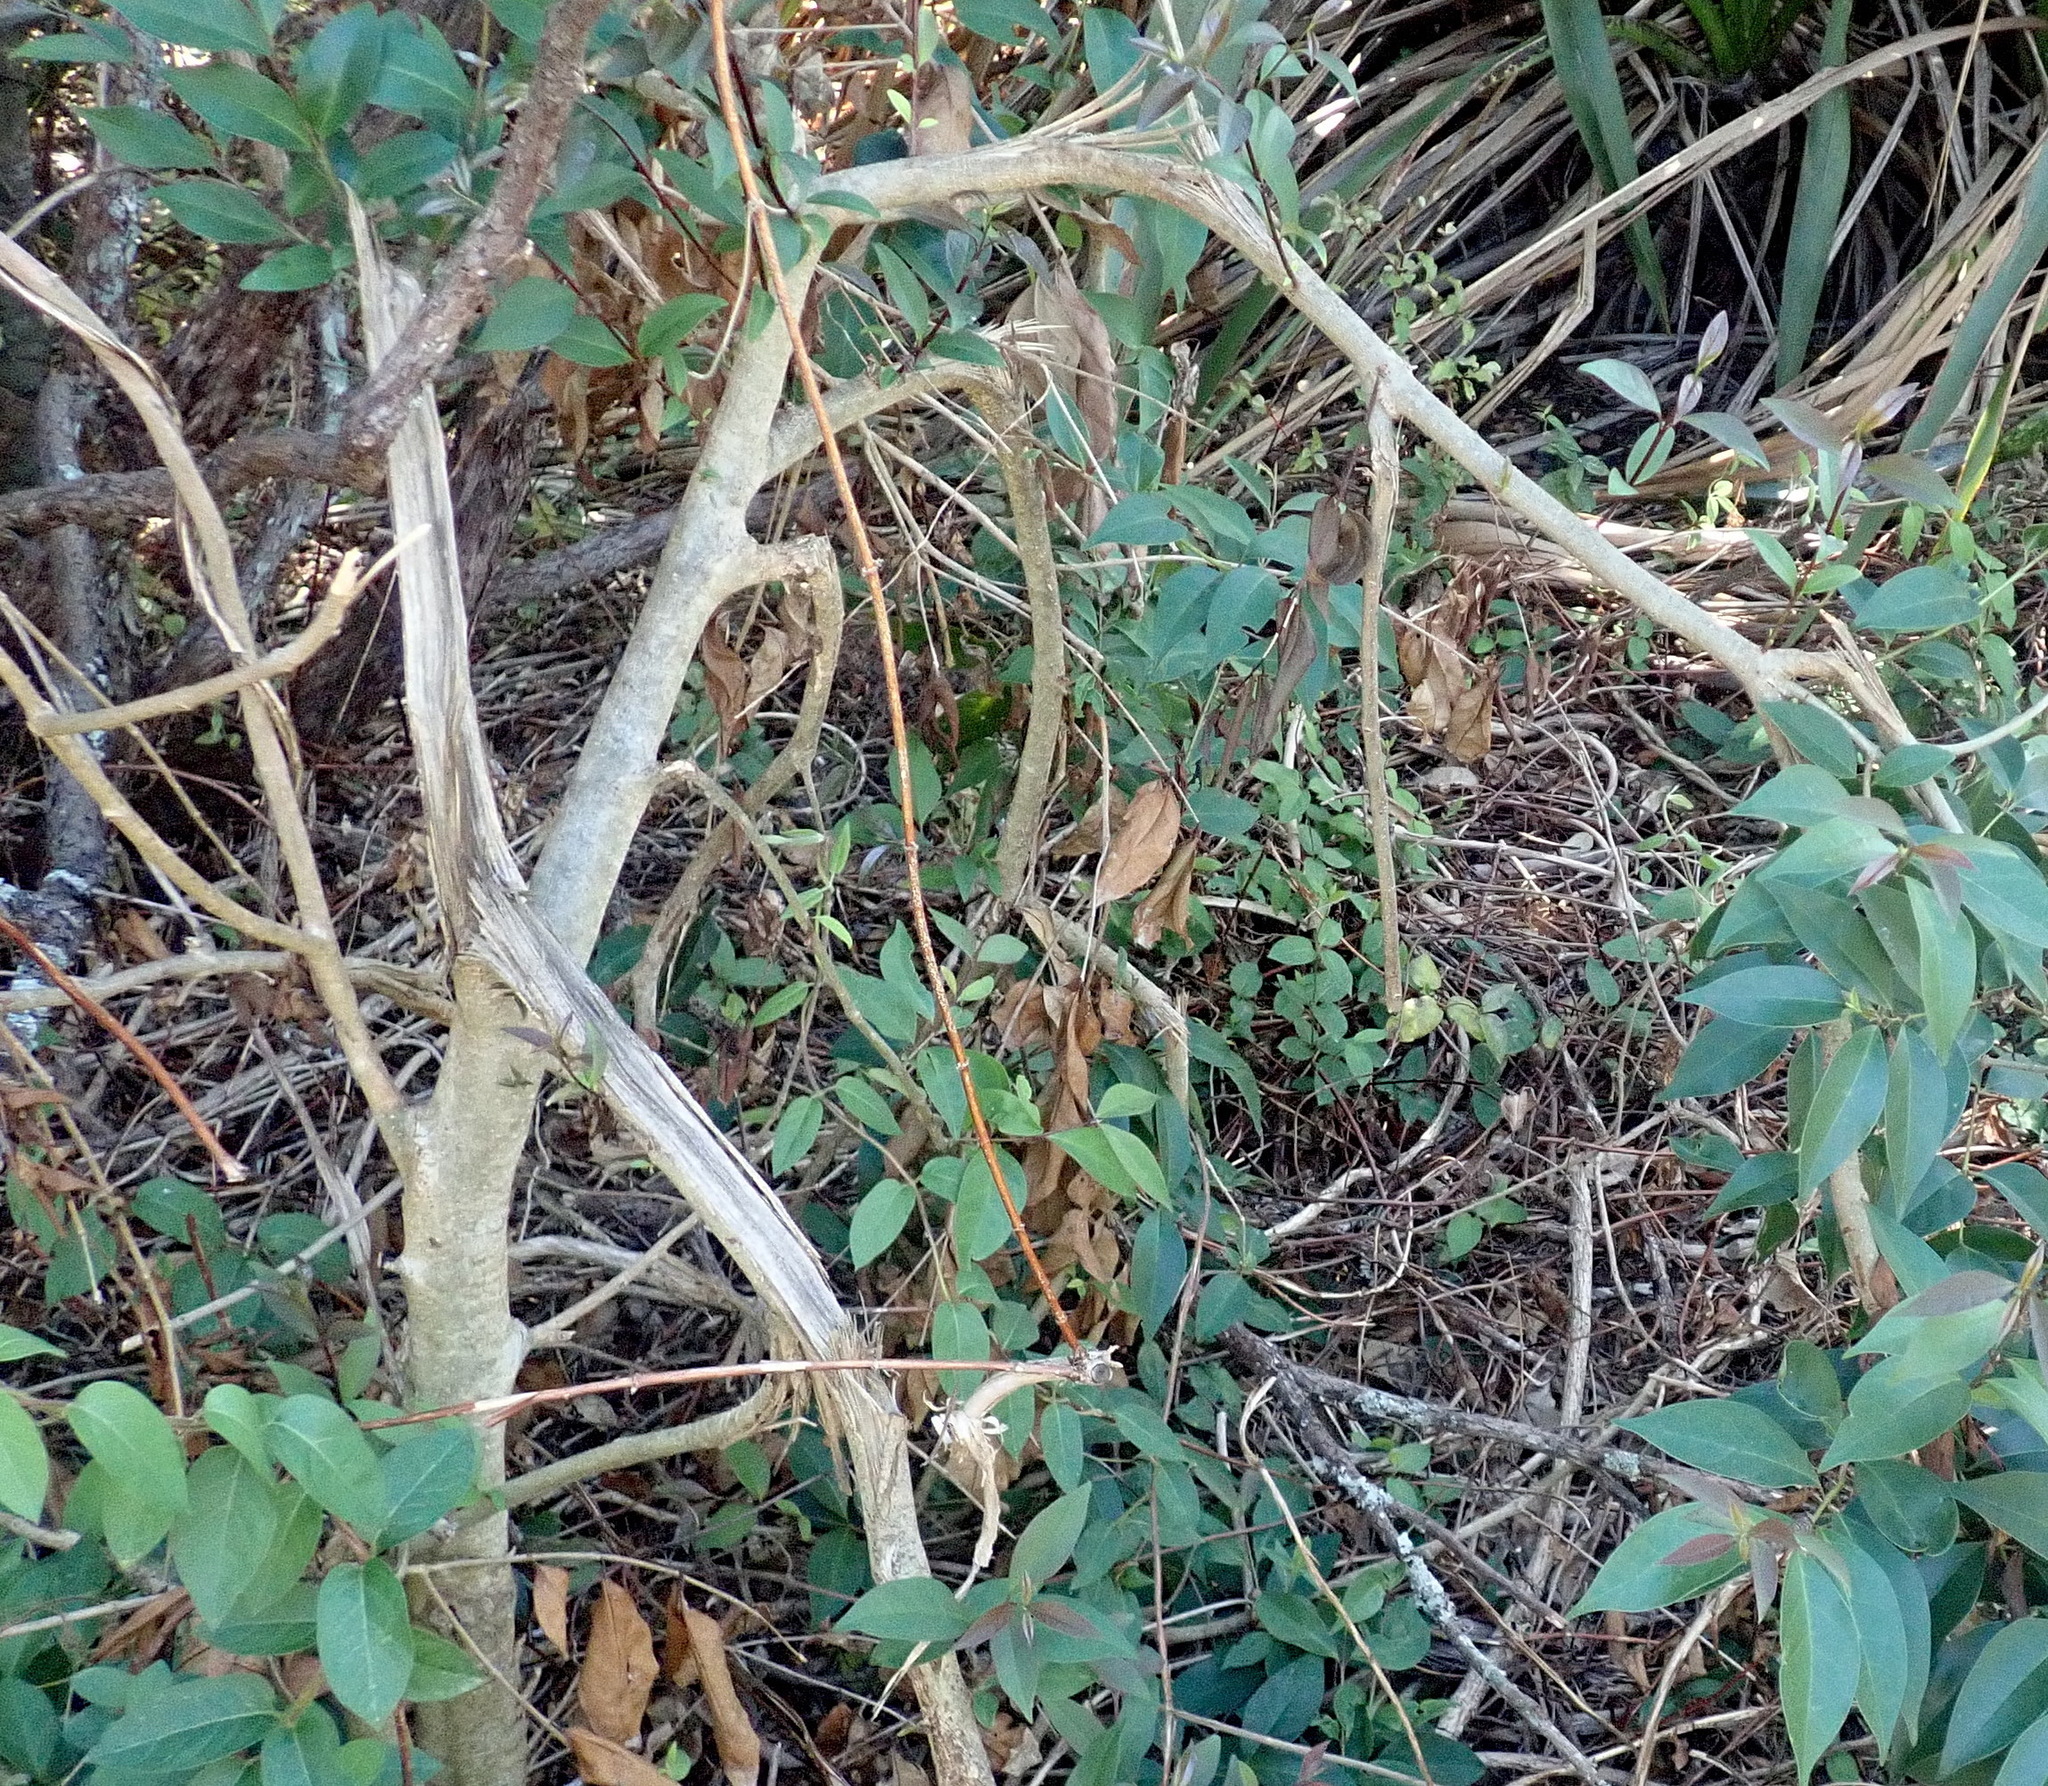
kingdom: Plantae
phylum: Tracheophyta
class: Magnoliopsida
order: Lamiales
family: Oleaceae
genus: Ligustrum
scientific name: Ligustrum lucidum
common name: Glossy privet
